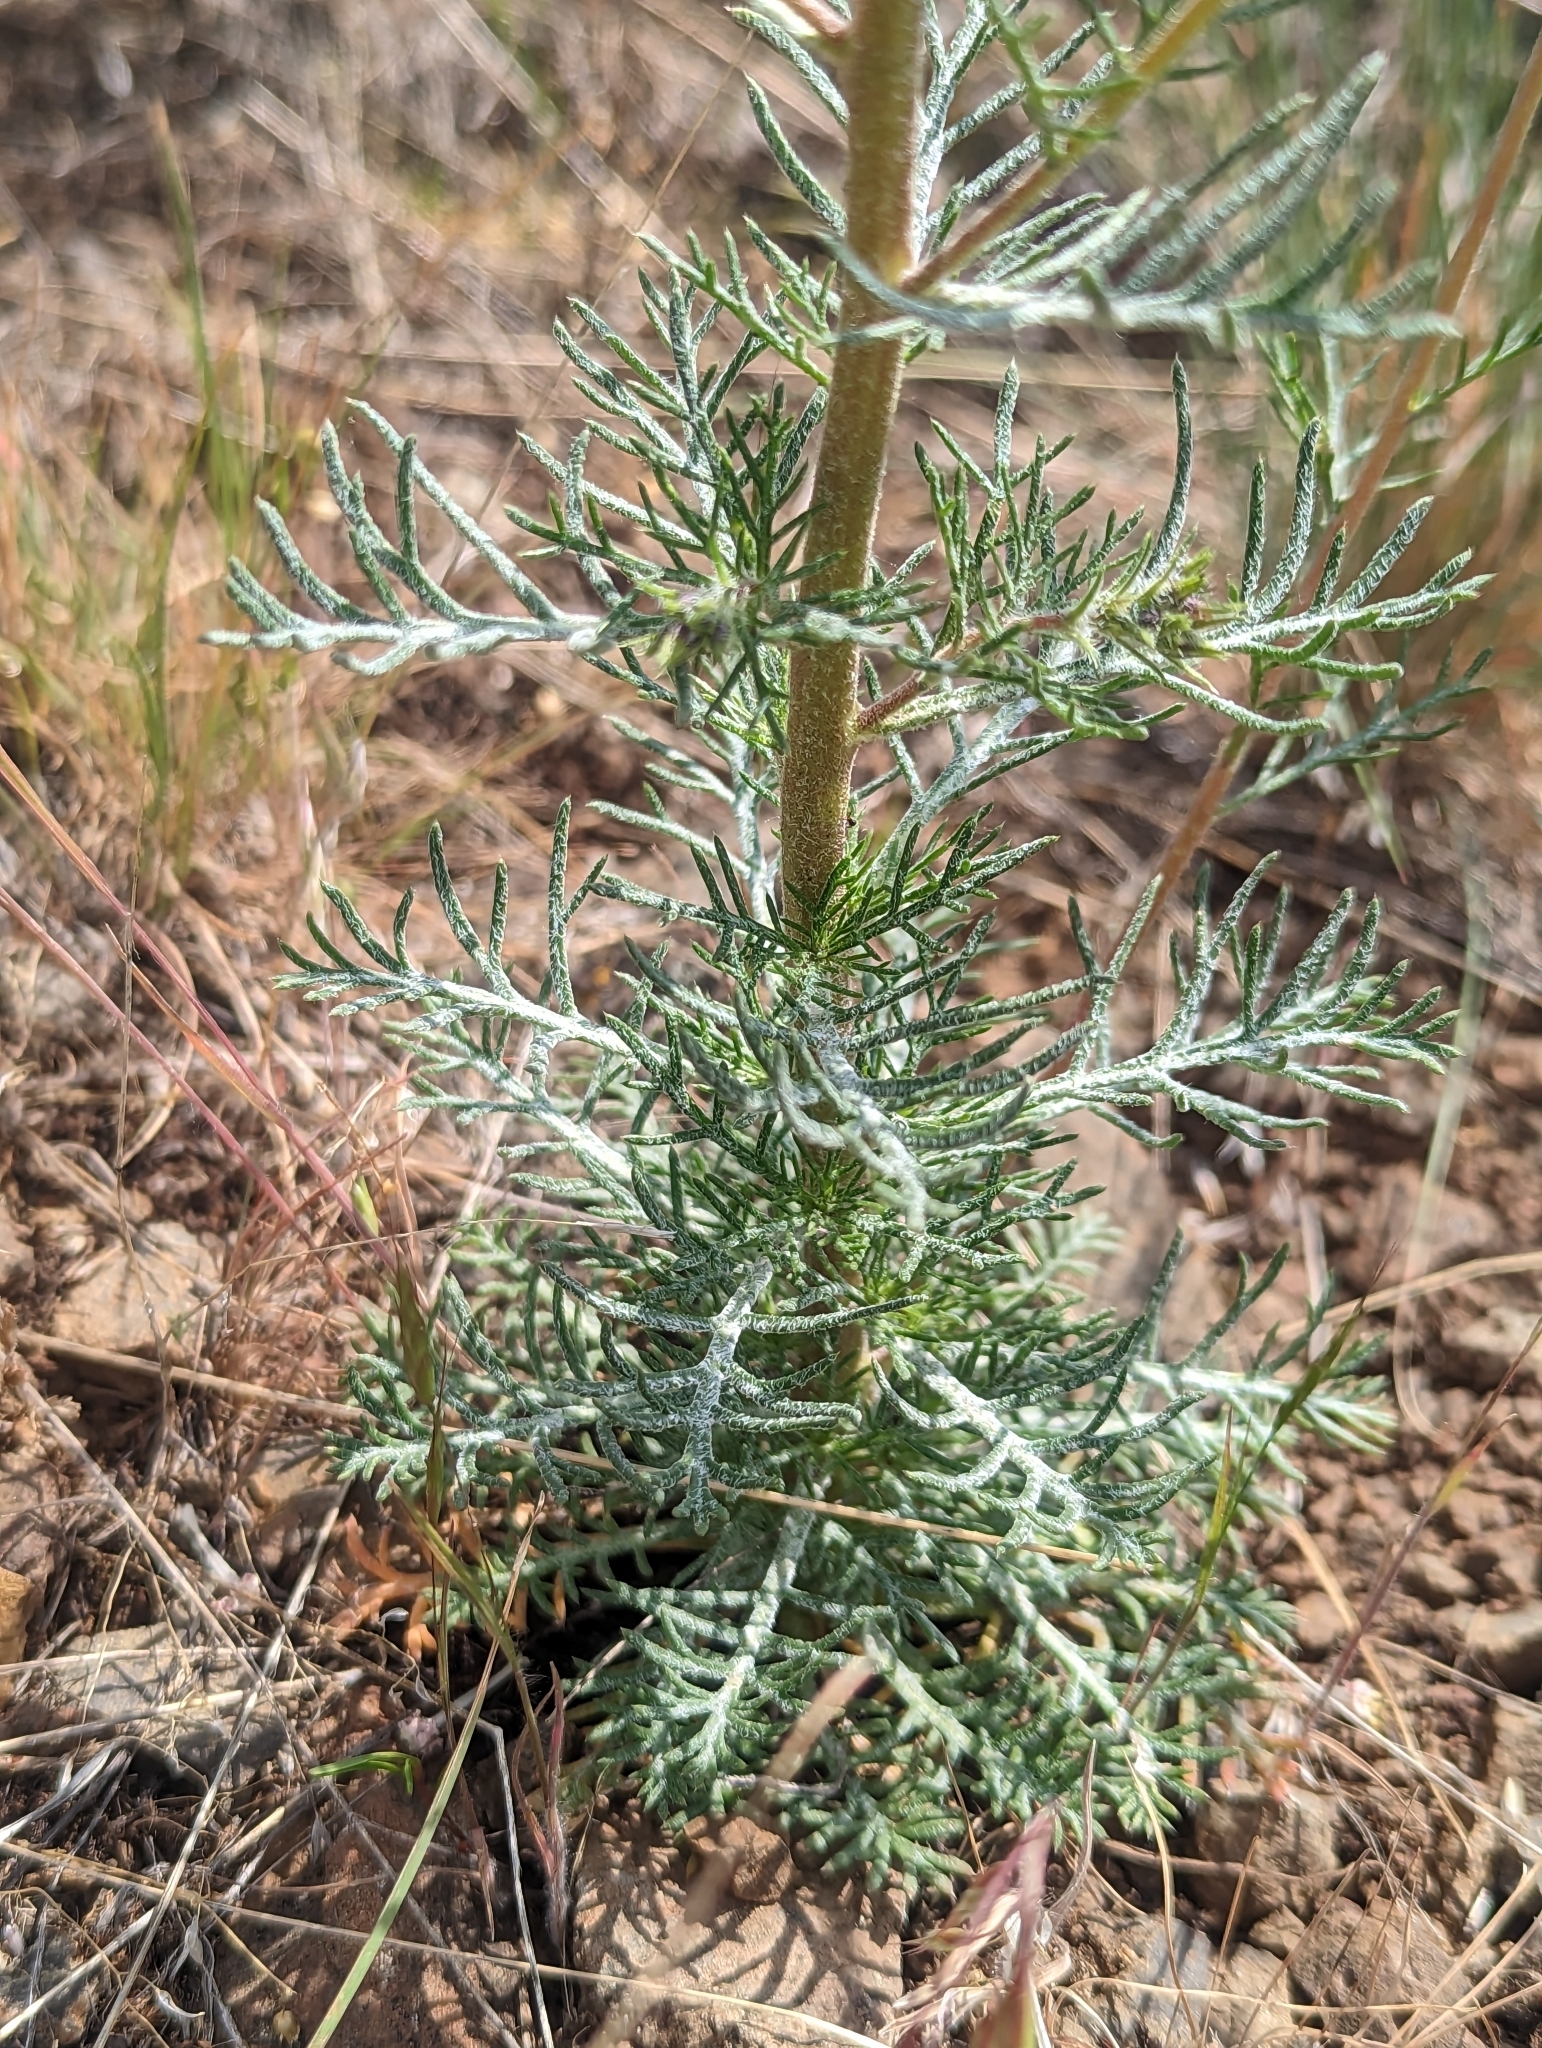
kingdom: Plantae
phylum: Tracheophyta
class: Magnoliopsida
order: Ericales
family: Polemoniaceae
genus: Ipomopsis
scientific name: Ipomopsis aggregata
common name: Scarlet gilia
